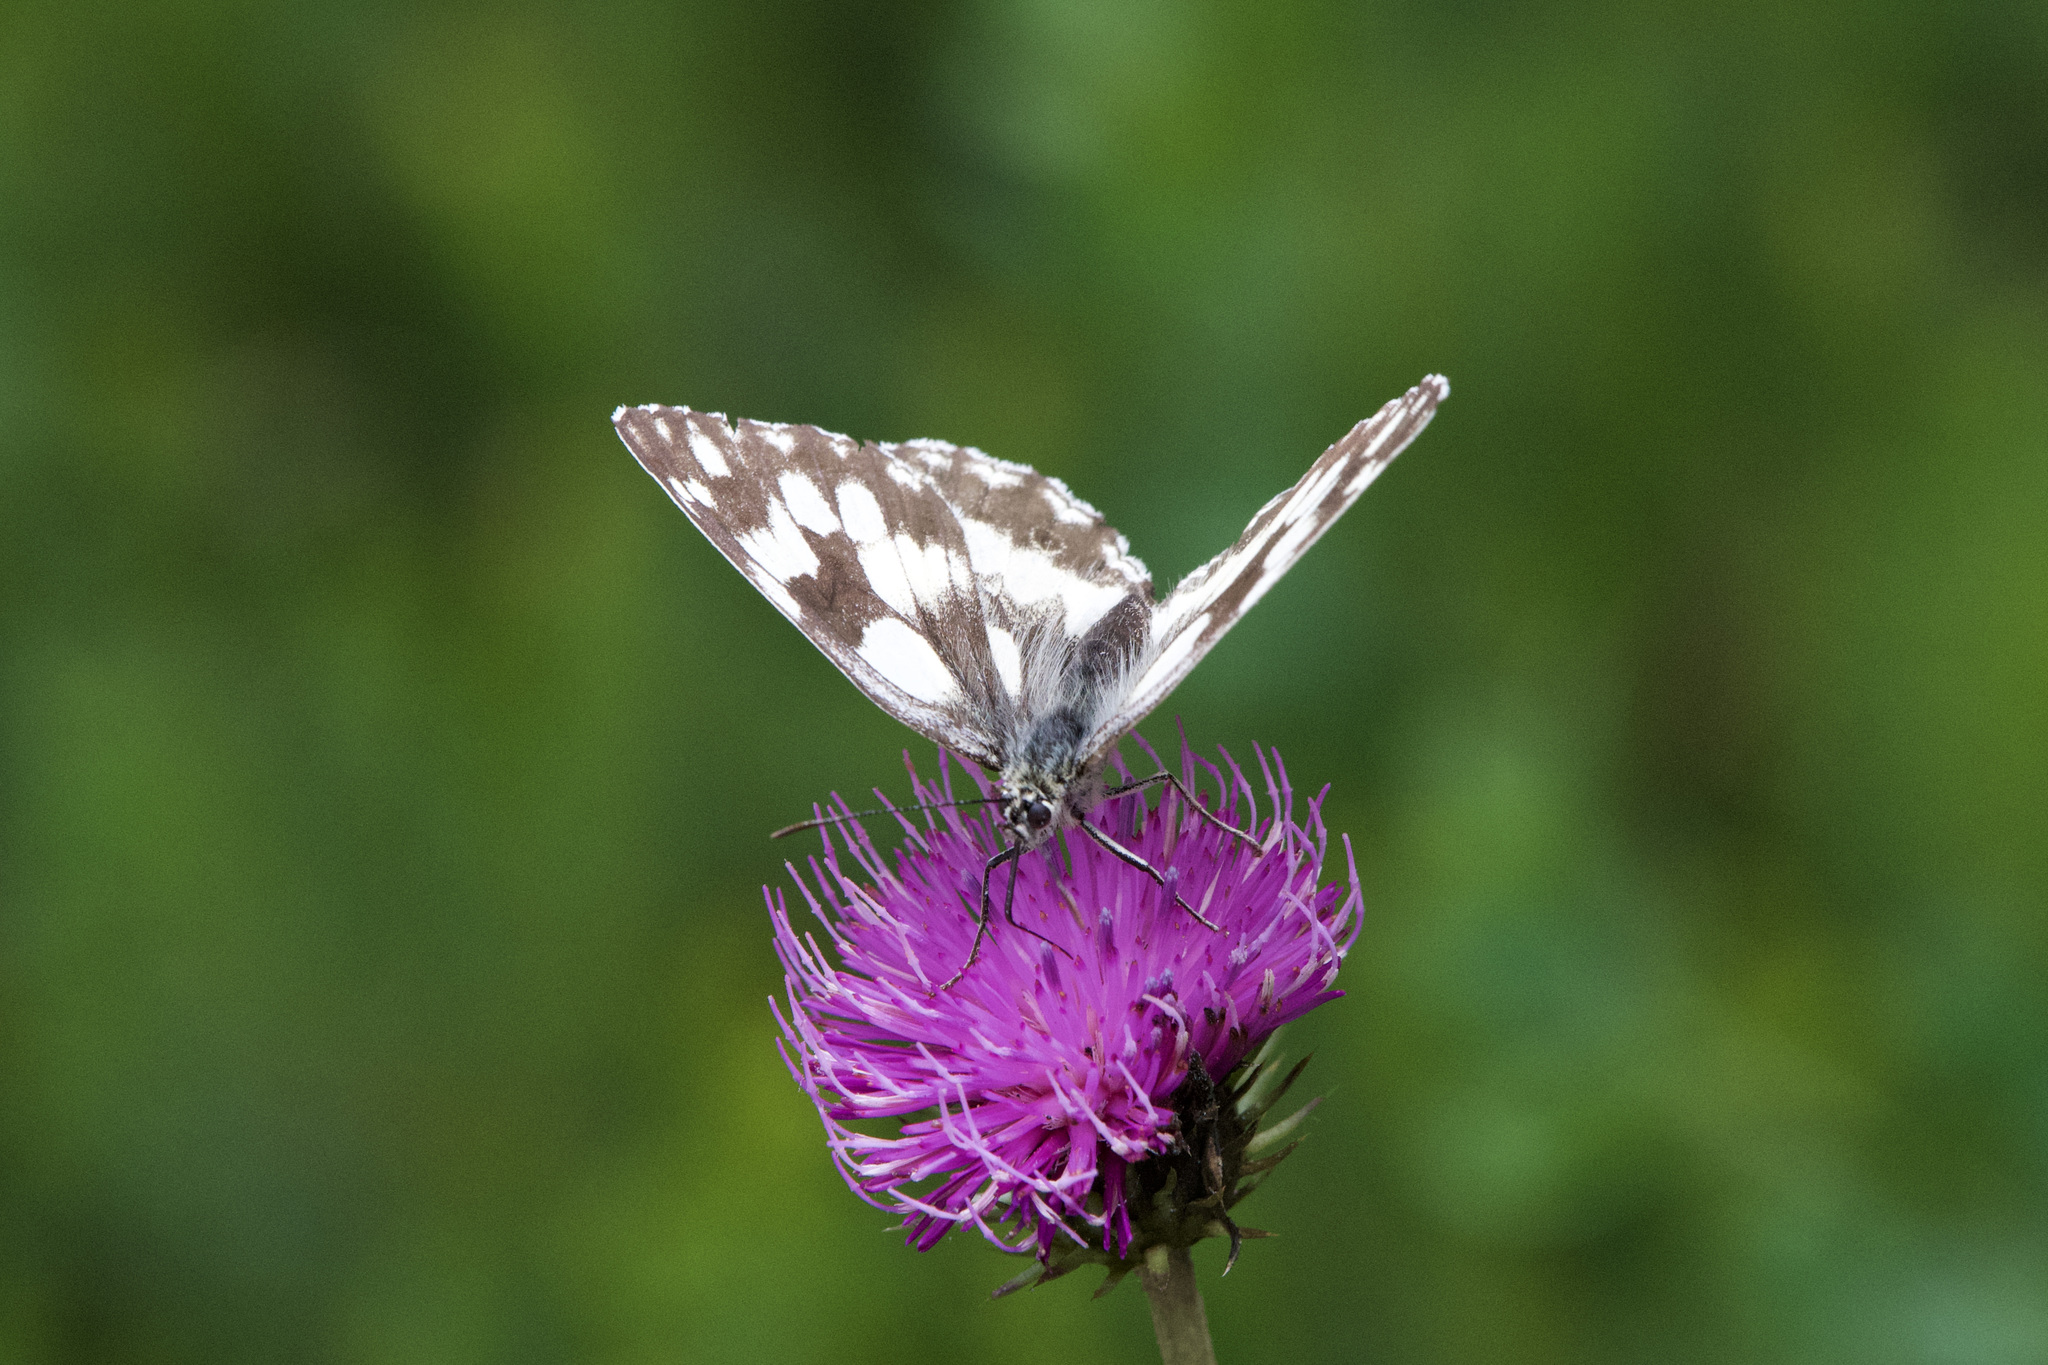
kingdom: Animalia
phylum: Arthropoda
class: Insecta
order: Lepidoptera
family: Nymphalidae
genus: Melanargia
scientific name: Melanargia galathea
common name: Marbled white
